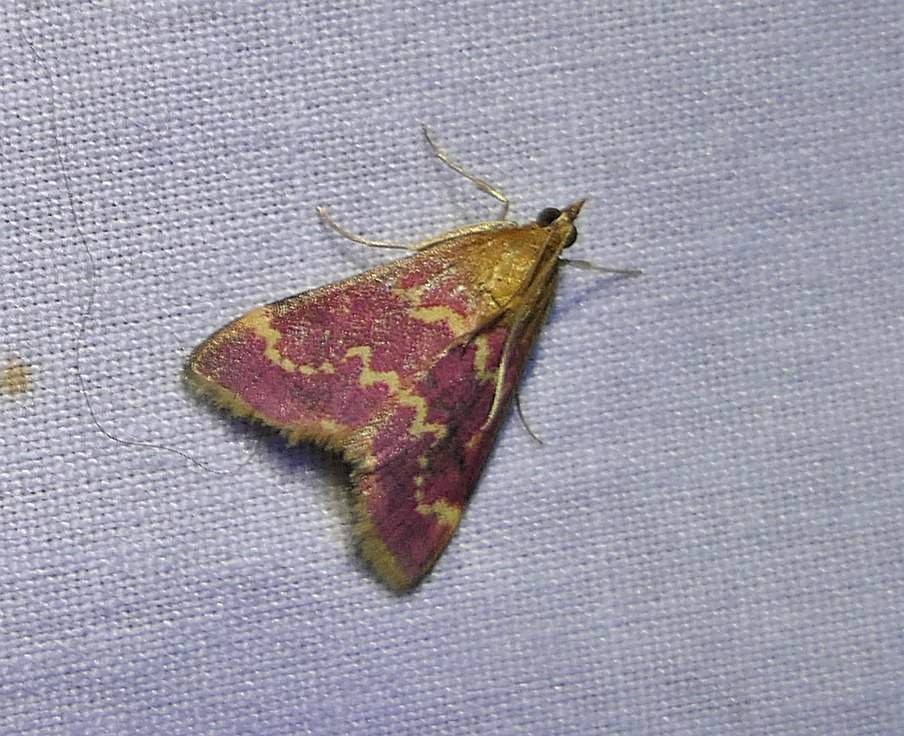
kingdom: Animalia
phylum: Arthropoda
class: Insecta
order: Lepidoptera
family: Crambidae
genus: Pyrausta
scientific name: Pyrausta signatalis
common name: Raspberry pyrausta moth
